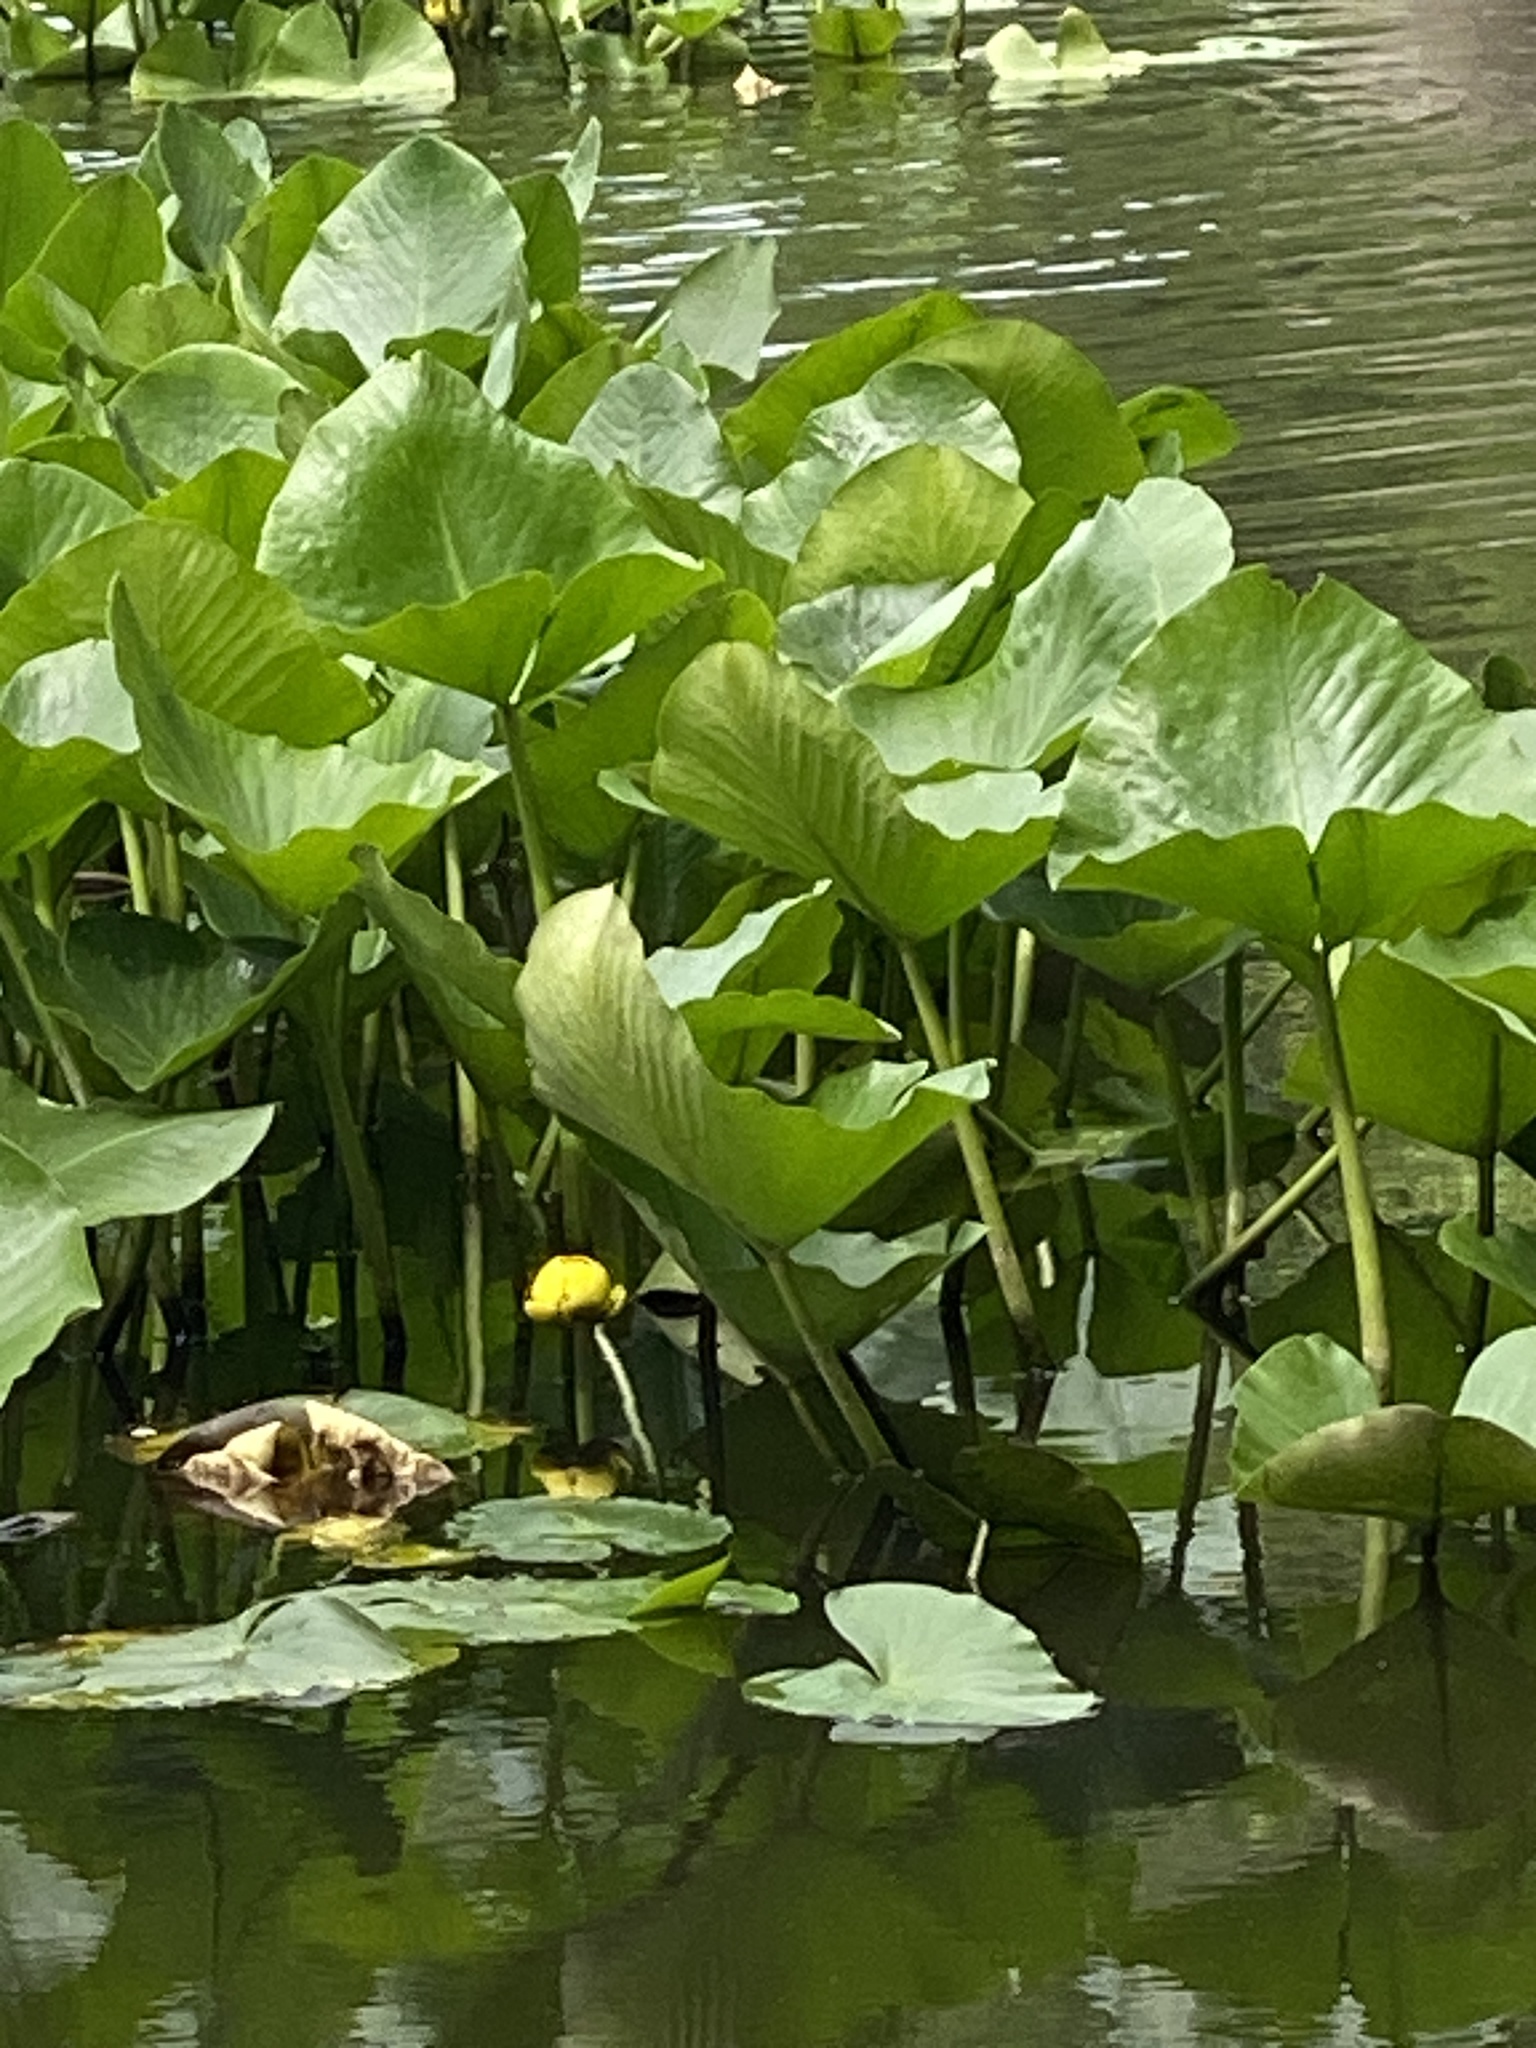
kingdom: Plantae
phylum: Tracheophyta
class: Magnoliopsida
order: Nymphaeales
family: Nymphaeaceae
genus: Nuphar
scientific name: Nuphar advena
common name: Spatter-dock
